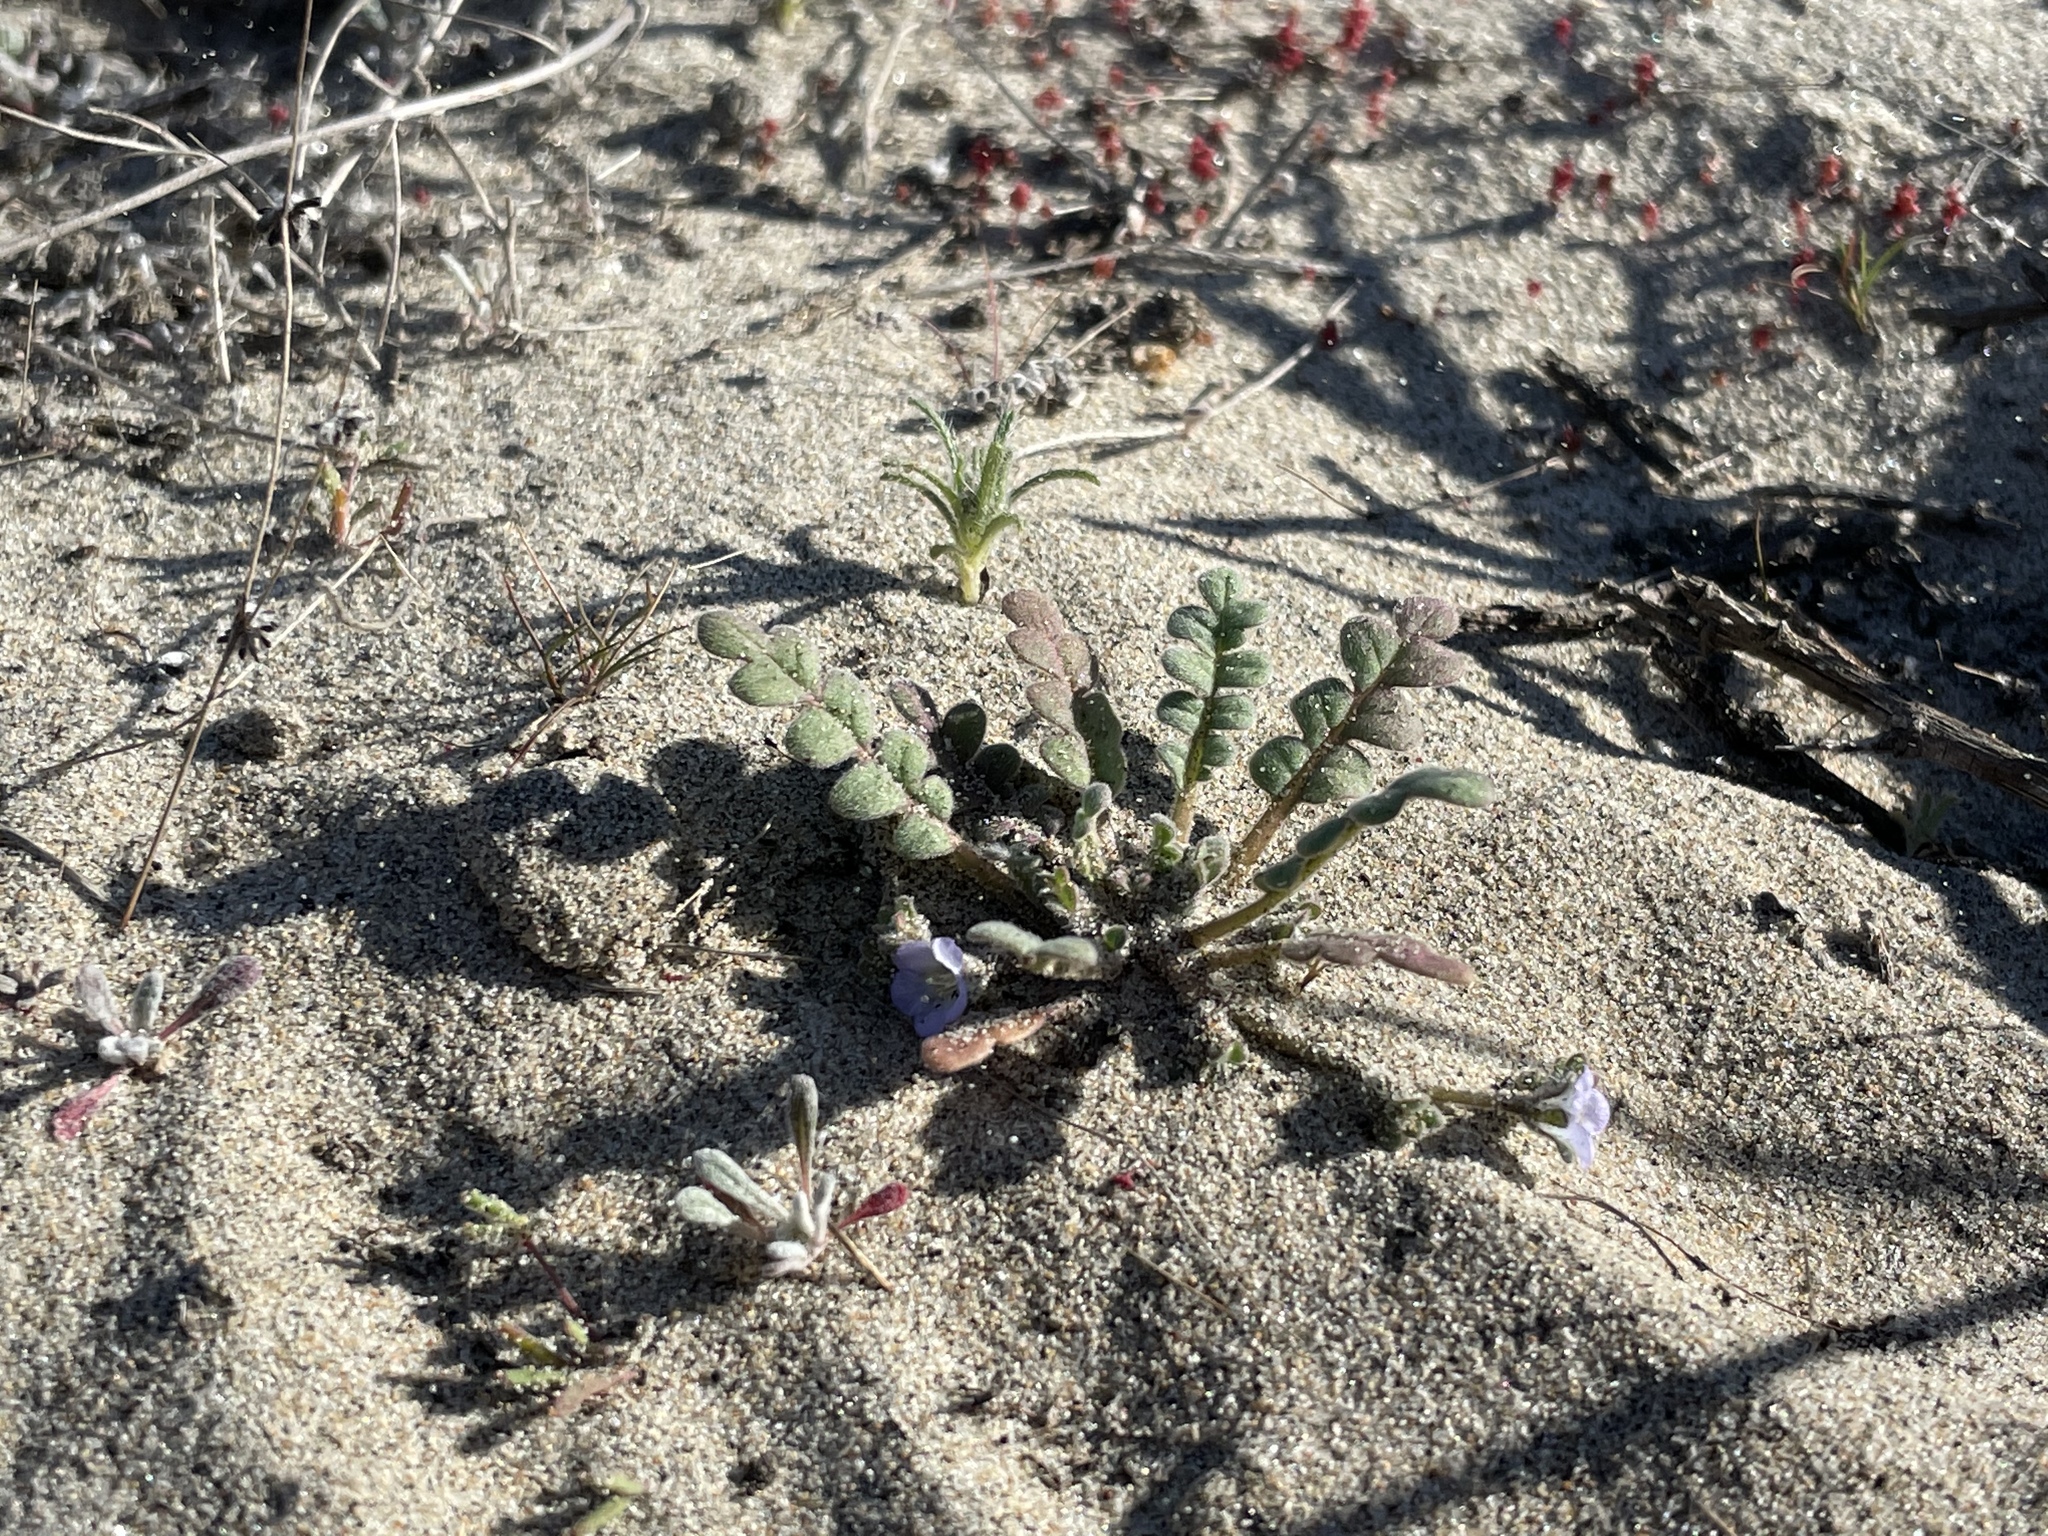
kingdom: Plantae
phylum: Tracheophyta
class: Magnoliopsida
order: Boraginales
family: Hydrophyllaceae
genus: Phacelia
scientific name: Phacelia stellaris
